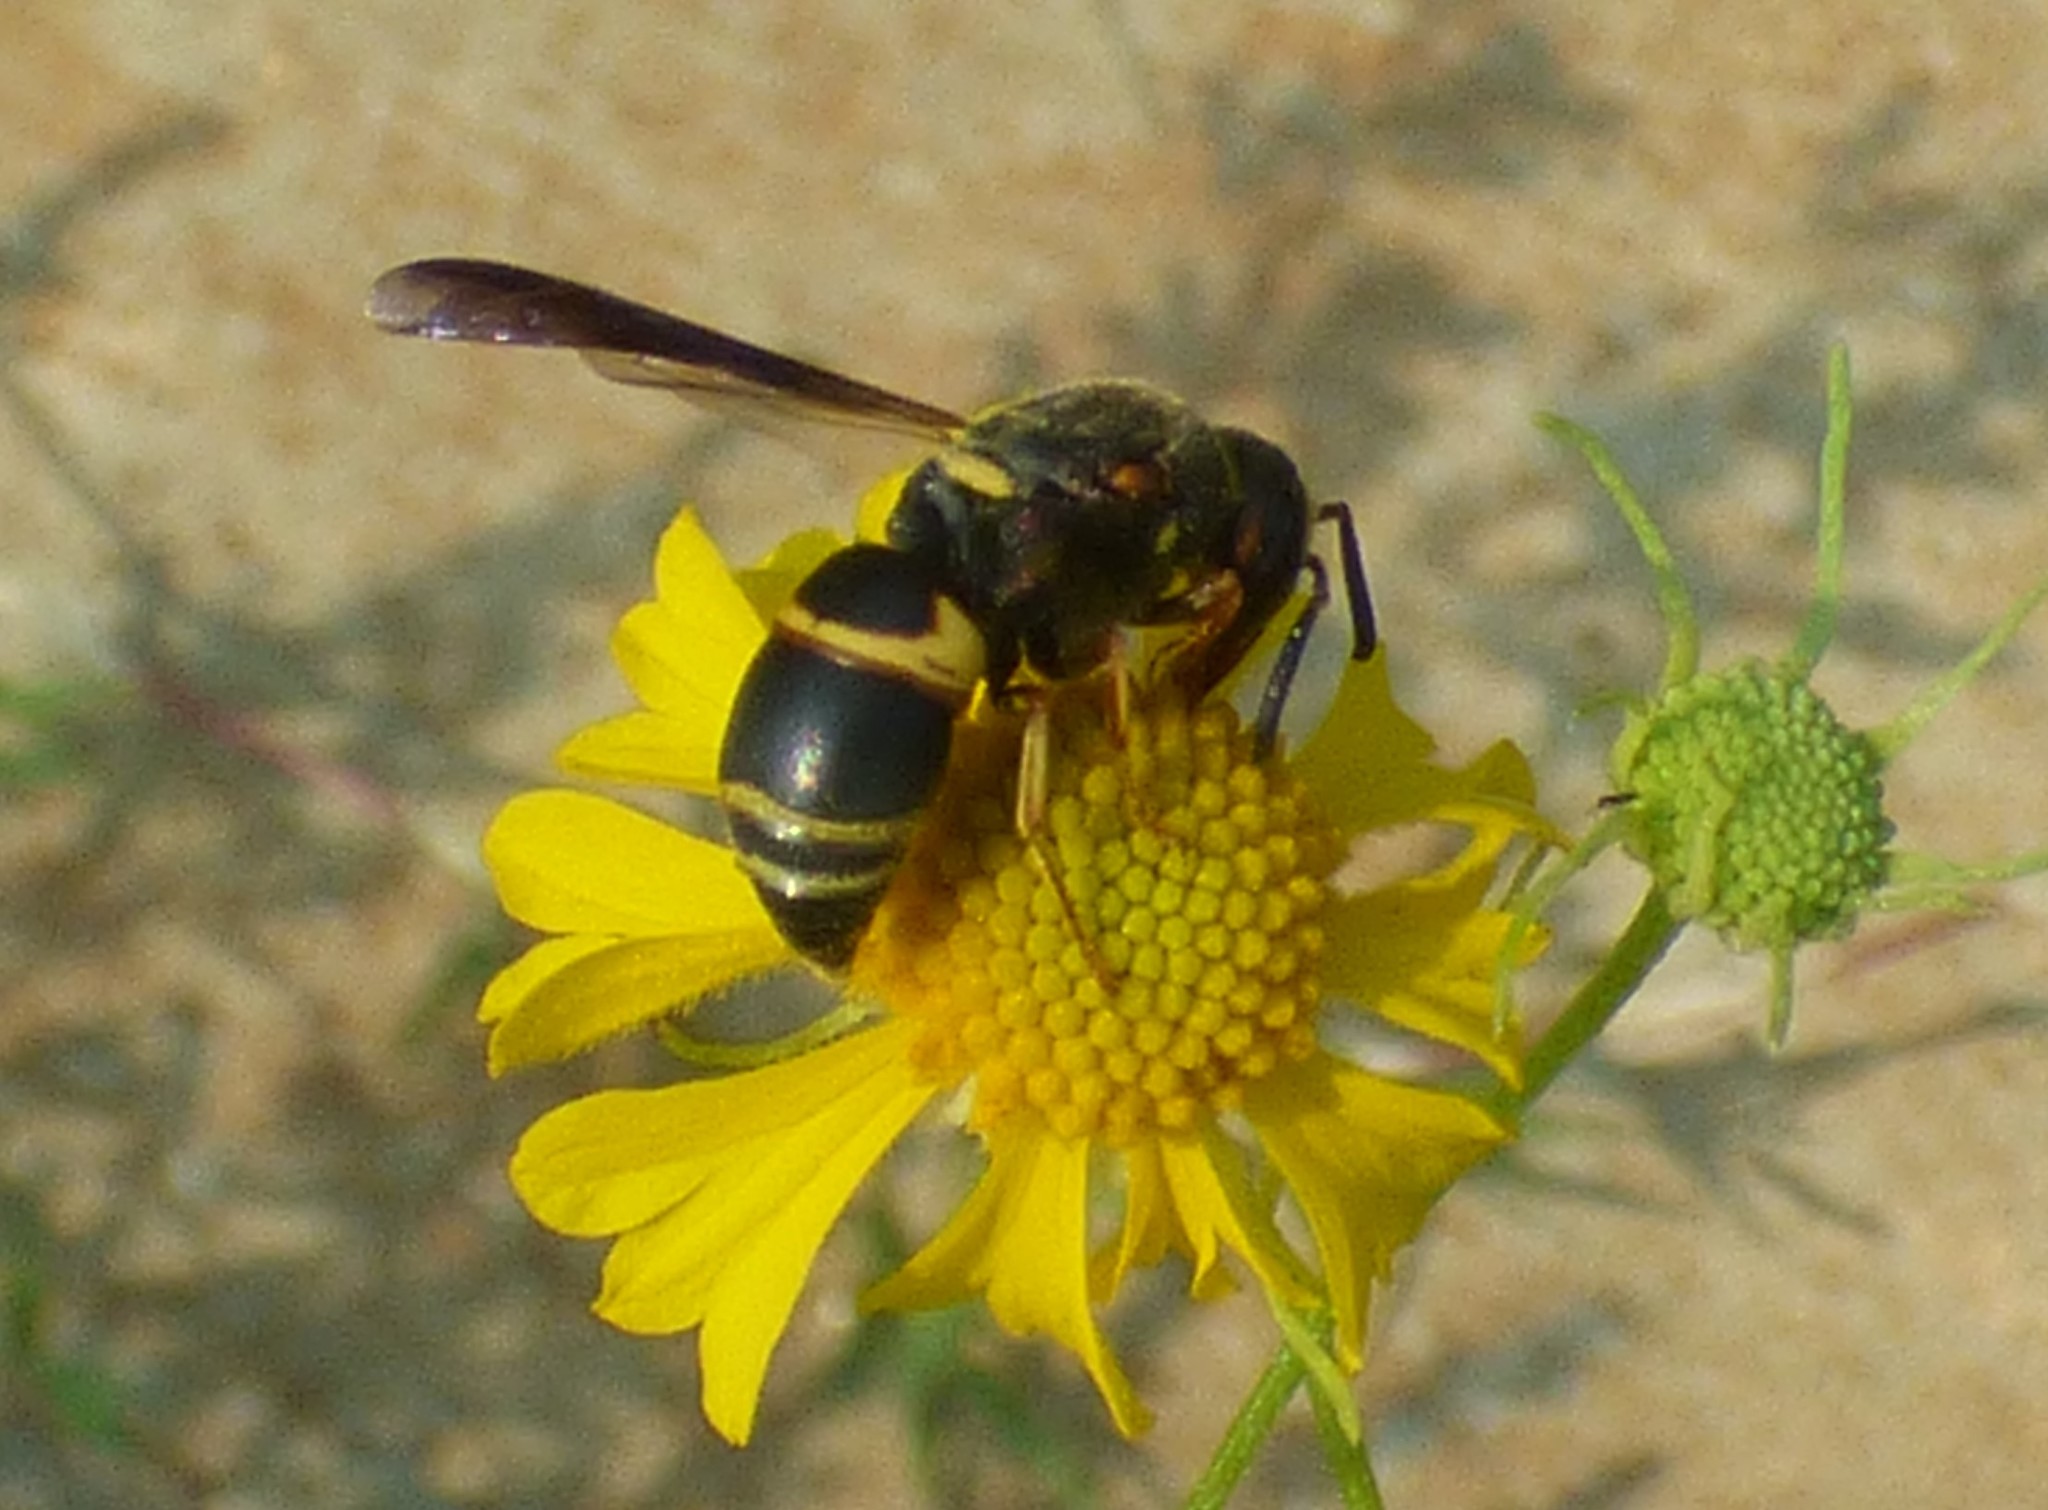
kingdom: Animalia
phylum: Arthropoda
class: Insecta
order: Hymenoptera
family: Eumenidae
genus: Euodynerus
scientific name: Euodynerus hidalgo
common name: Wasp
